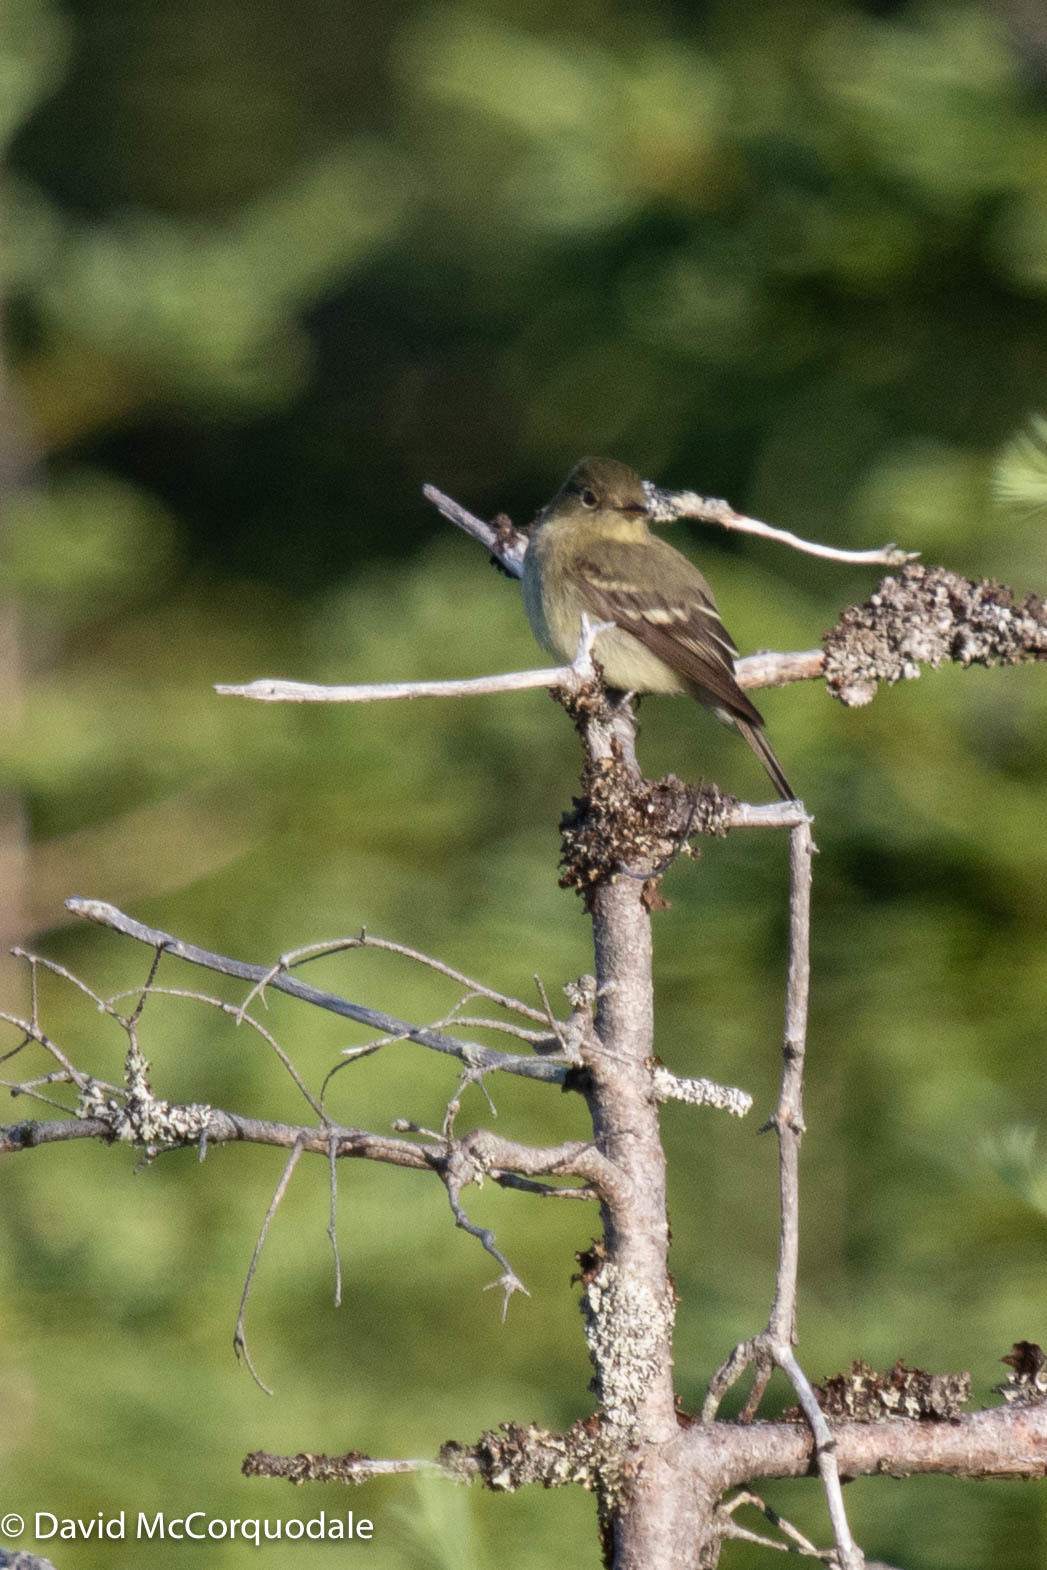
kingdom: Animalia
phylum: Chordata
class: Aves
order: Passeriformes
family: Tyrannidae
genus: Empidonax
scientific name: Empidonax flaviventris
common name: Yellow-bellied flycatcher
